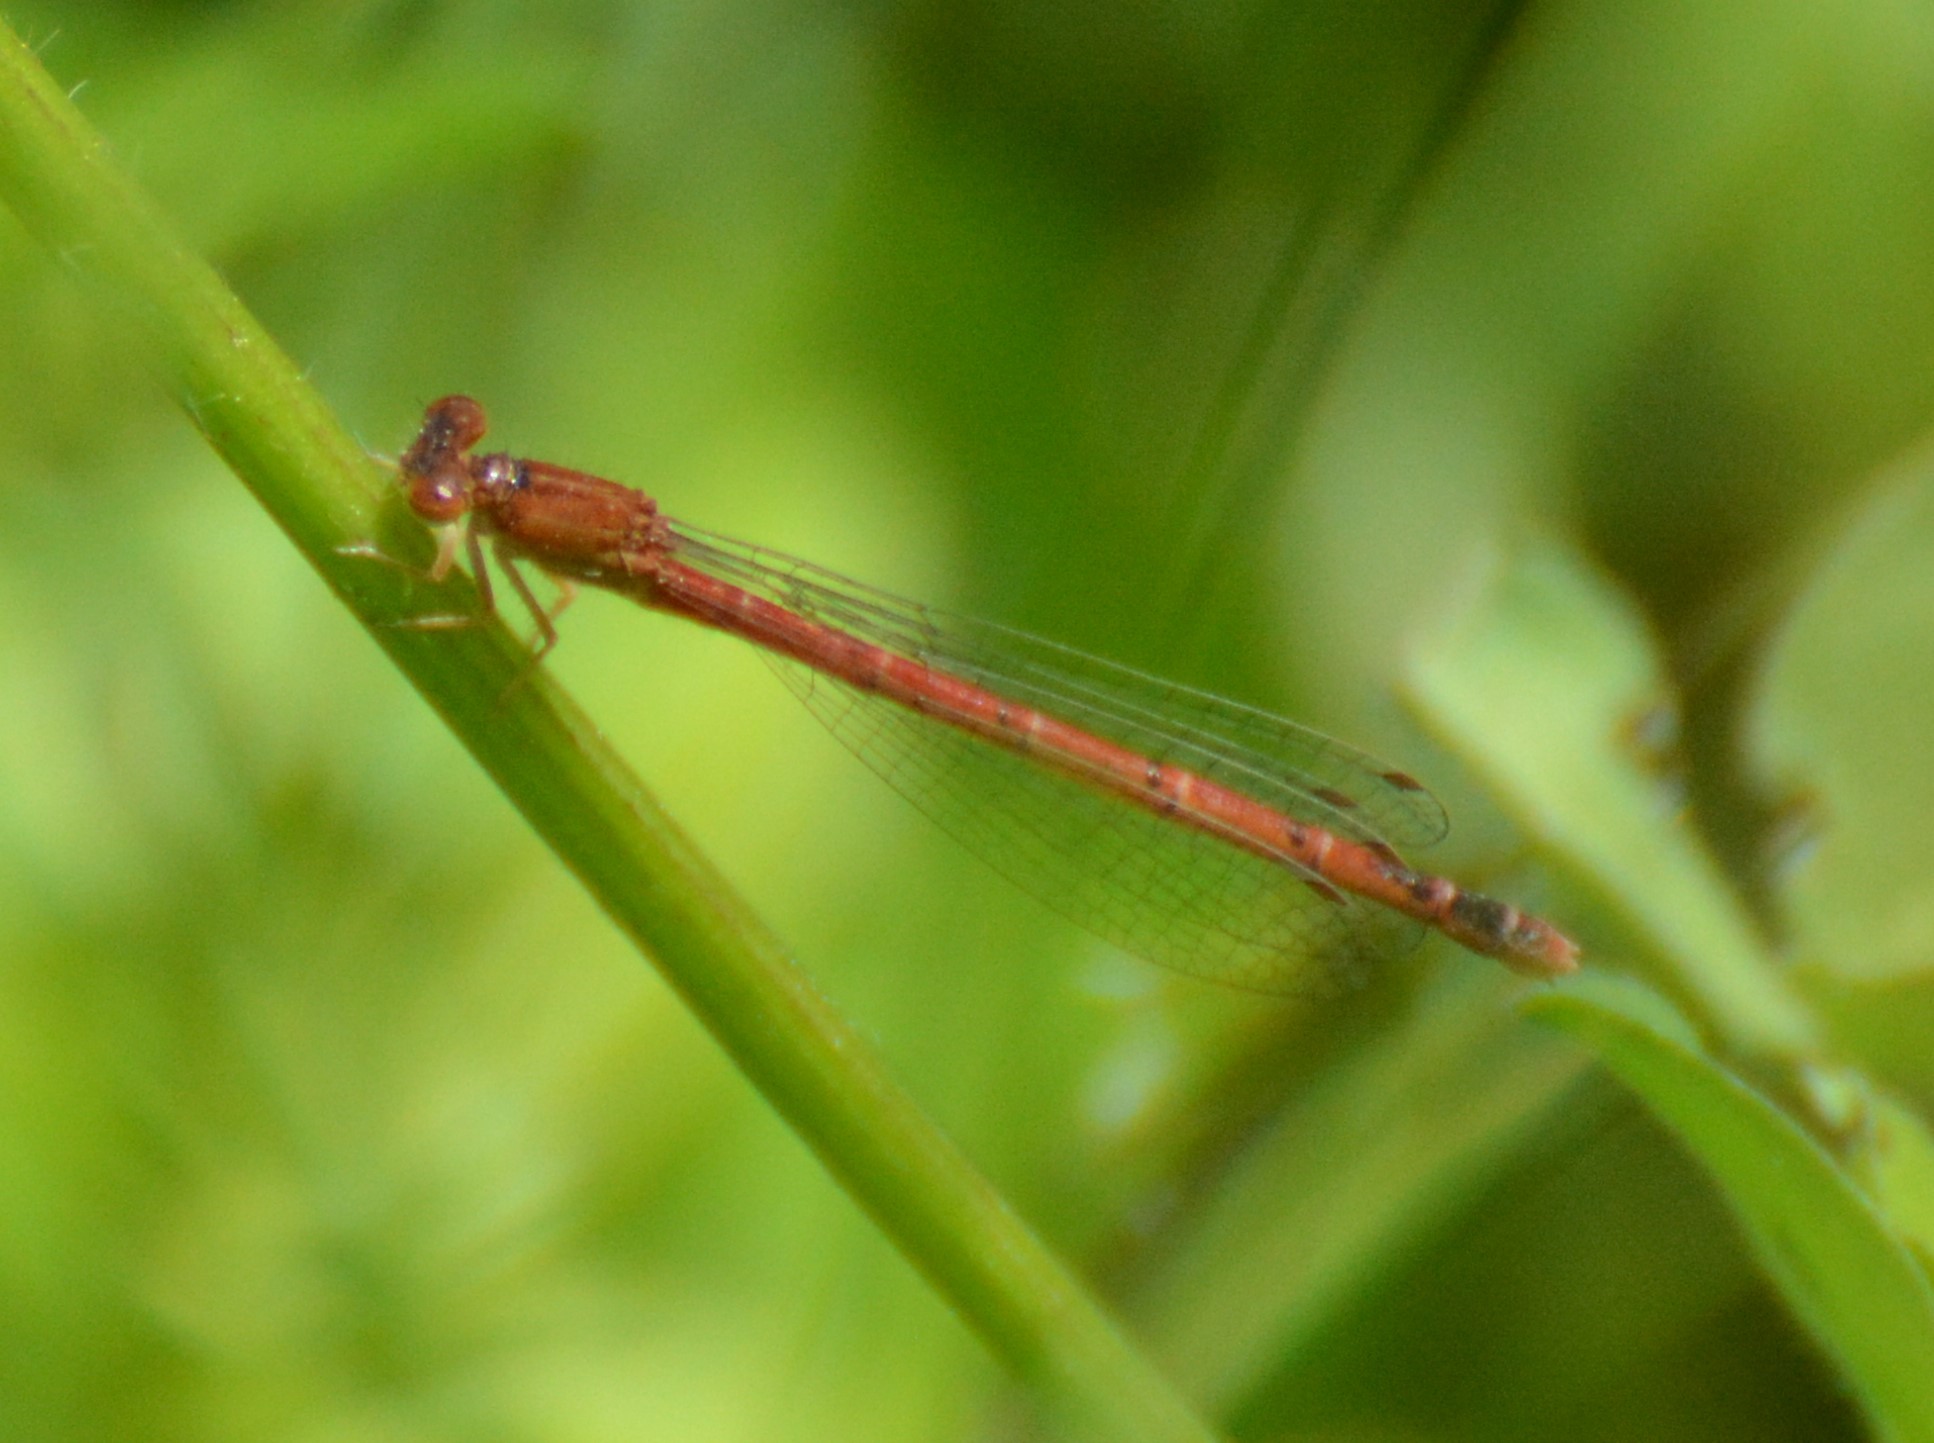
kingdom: Animalia
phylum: Arthropoda
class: Insecta
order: Odonata
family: Coenagrionidae
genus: Amphiagrion
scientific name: Amphiagrion saucium
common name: Eastern red damsel
